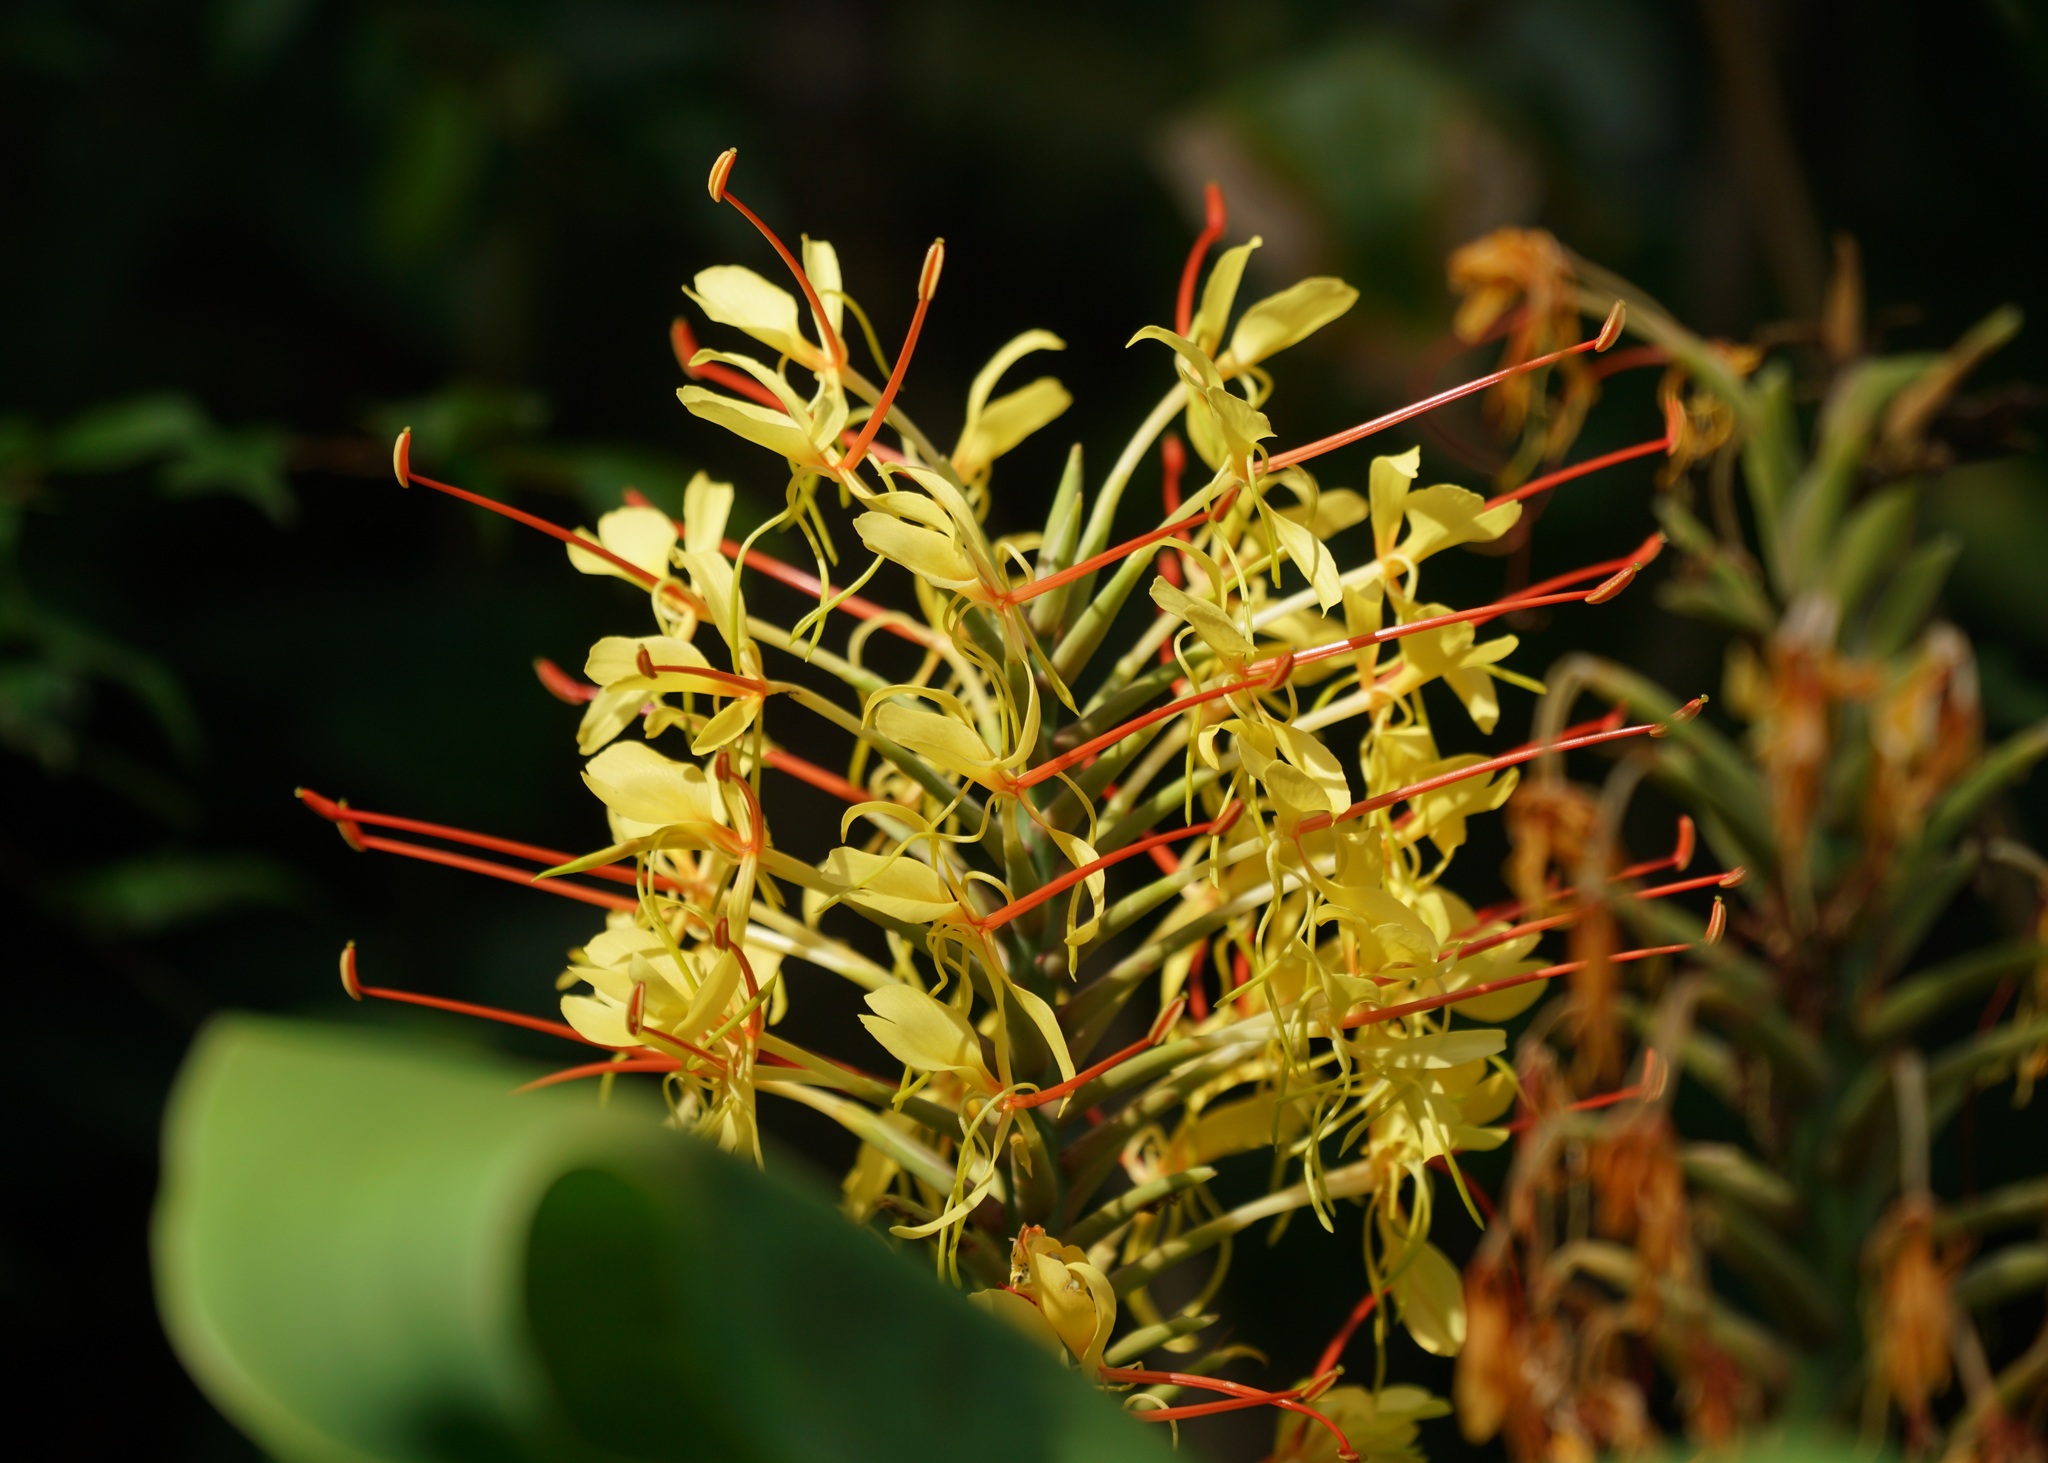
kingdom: Plantae
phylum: Tracheophyta
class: Liliopsida
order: Zingiberales
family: Zingiberaceae
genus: Hedychium
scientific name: Hedychium gardnerianum
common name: Himalayan ginger
